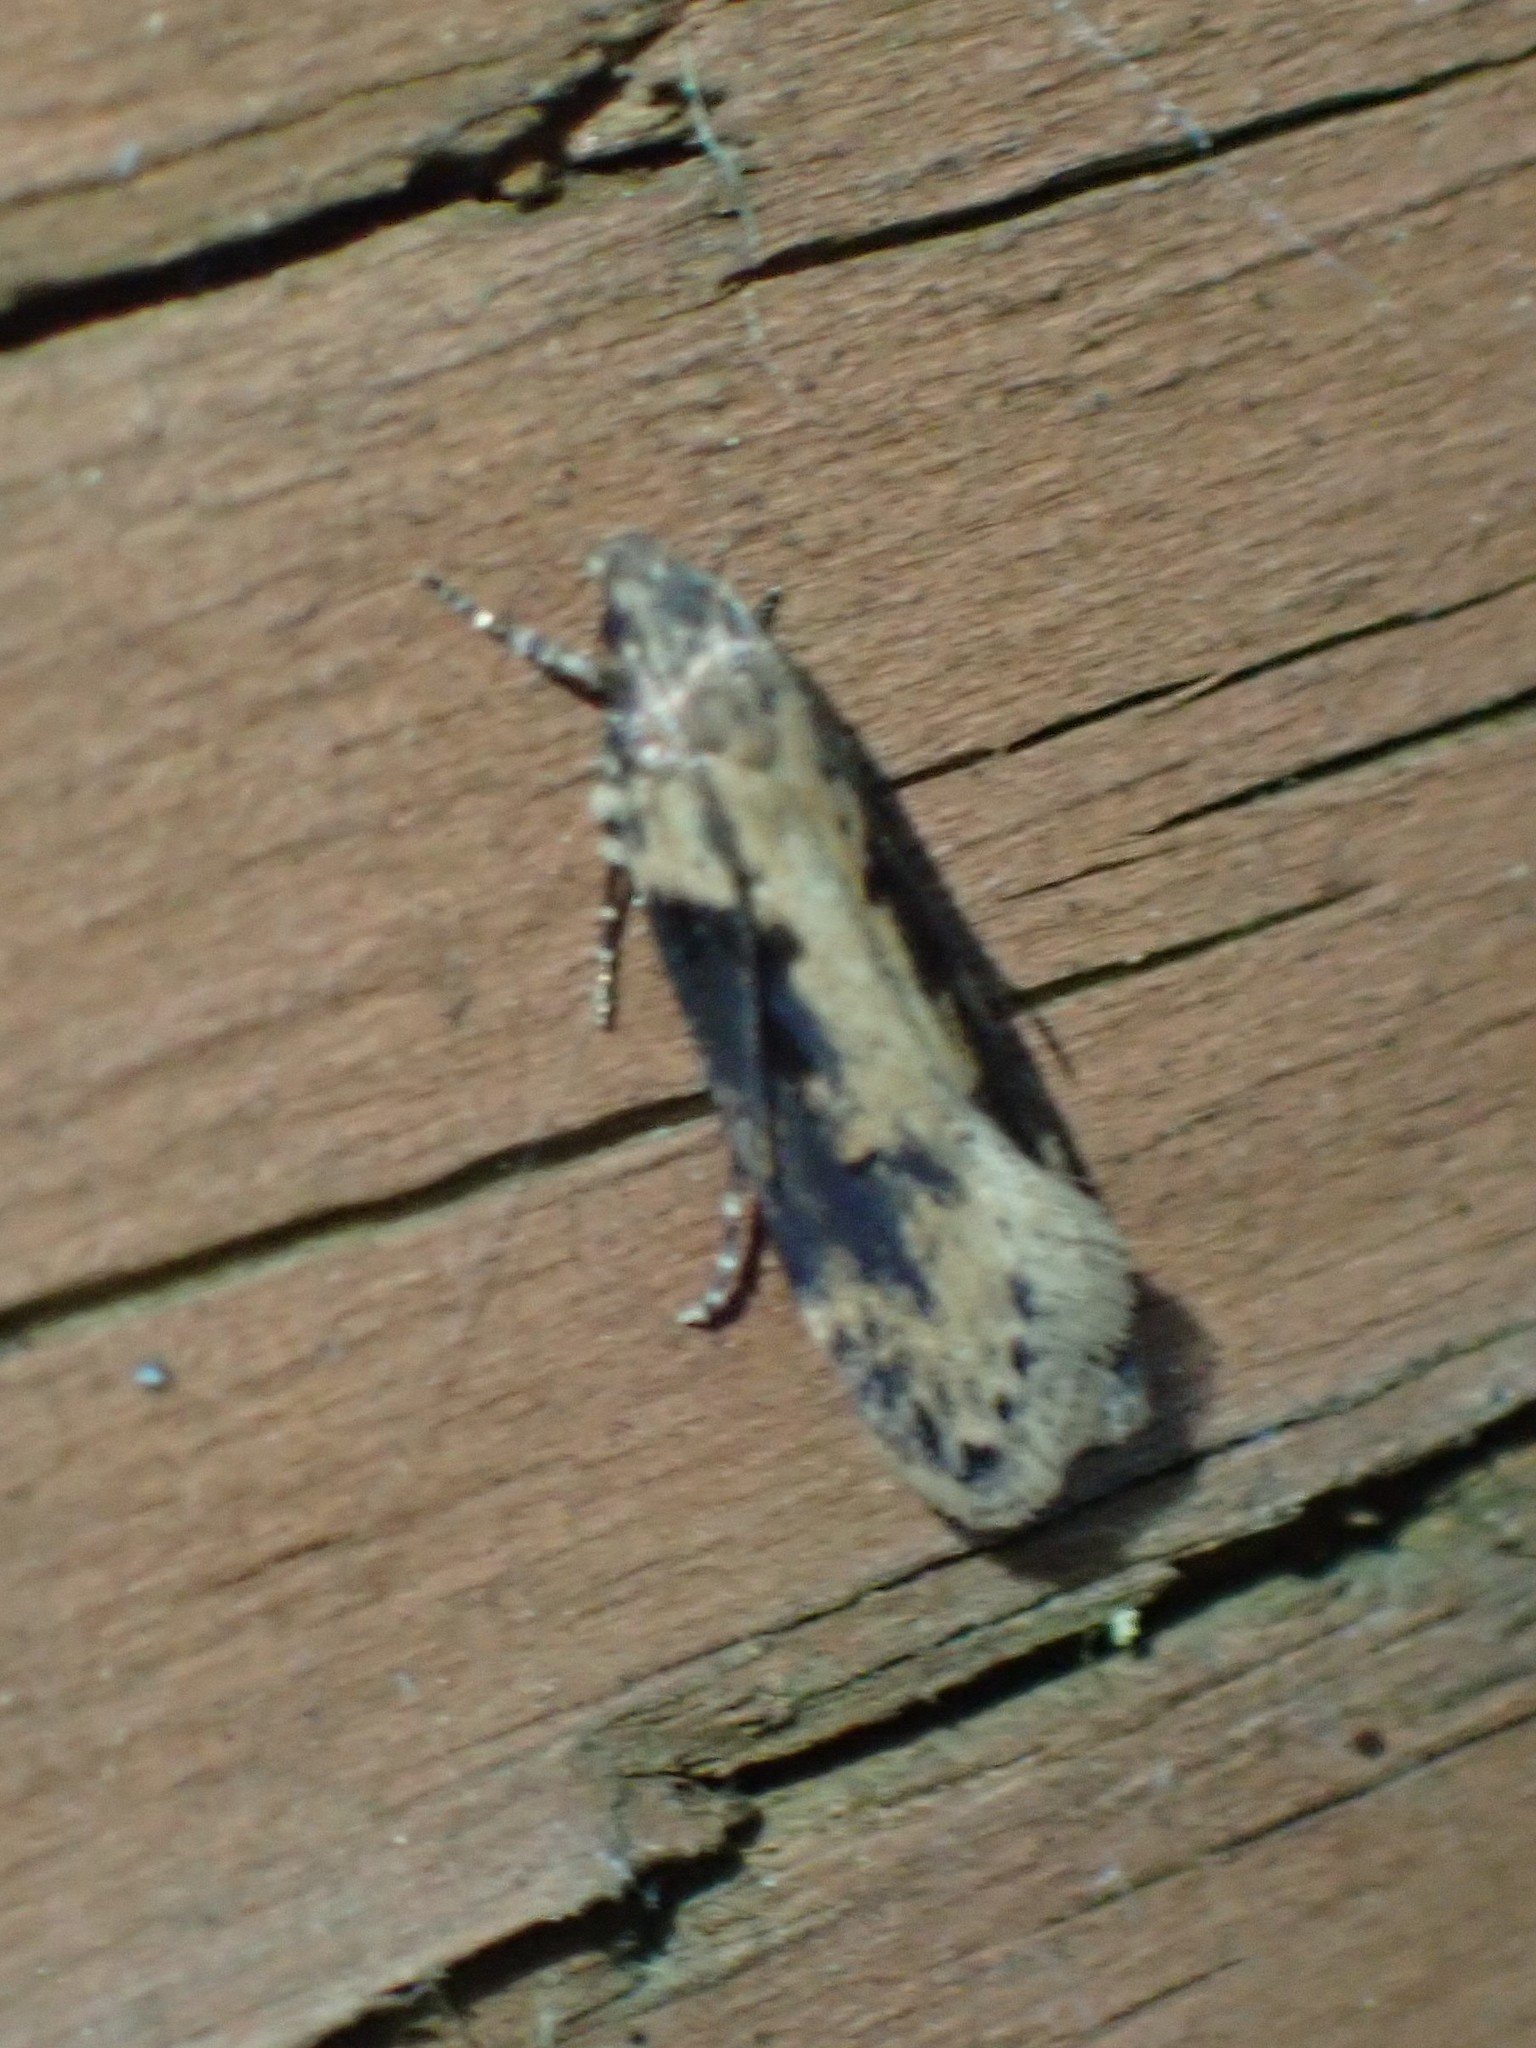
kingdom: Animalia
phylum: Arthropoda
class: Insecta
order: Lepidoptera
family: Gelechiidae
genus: Chionodes
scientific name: Chionodes mediofuscella
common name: Black-smudged chionodes moth
